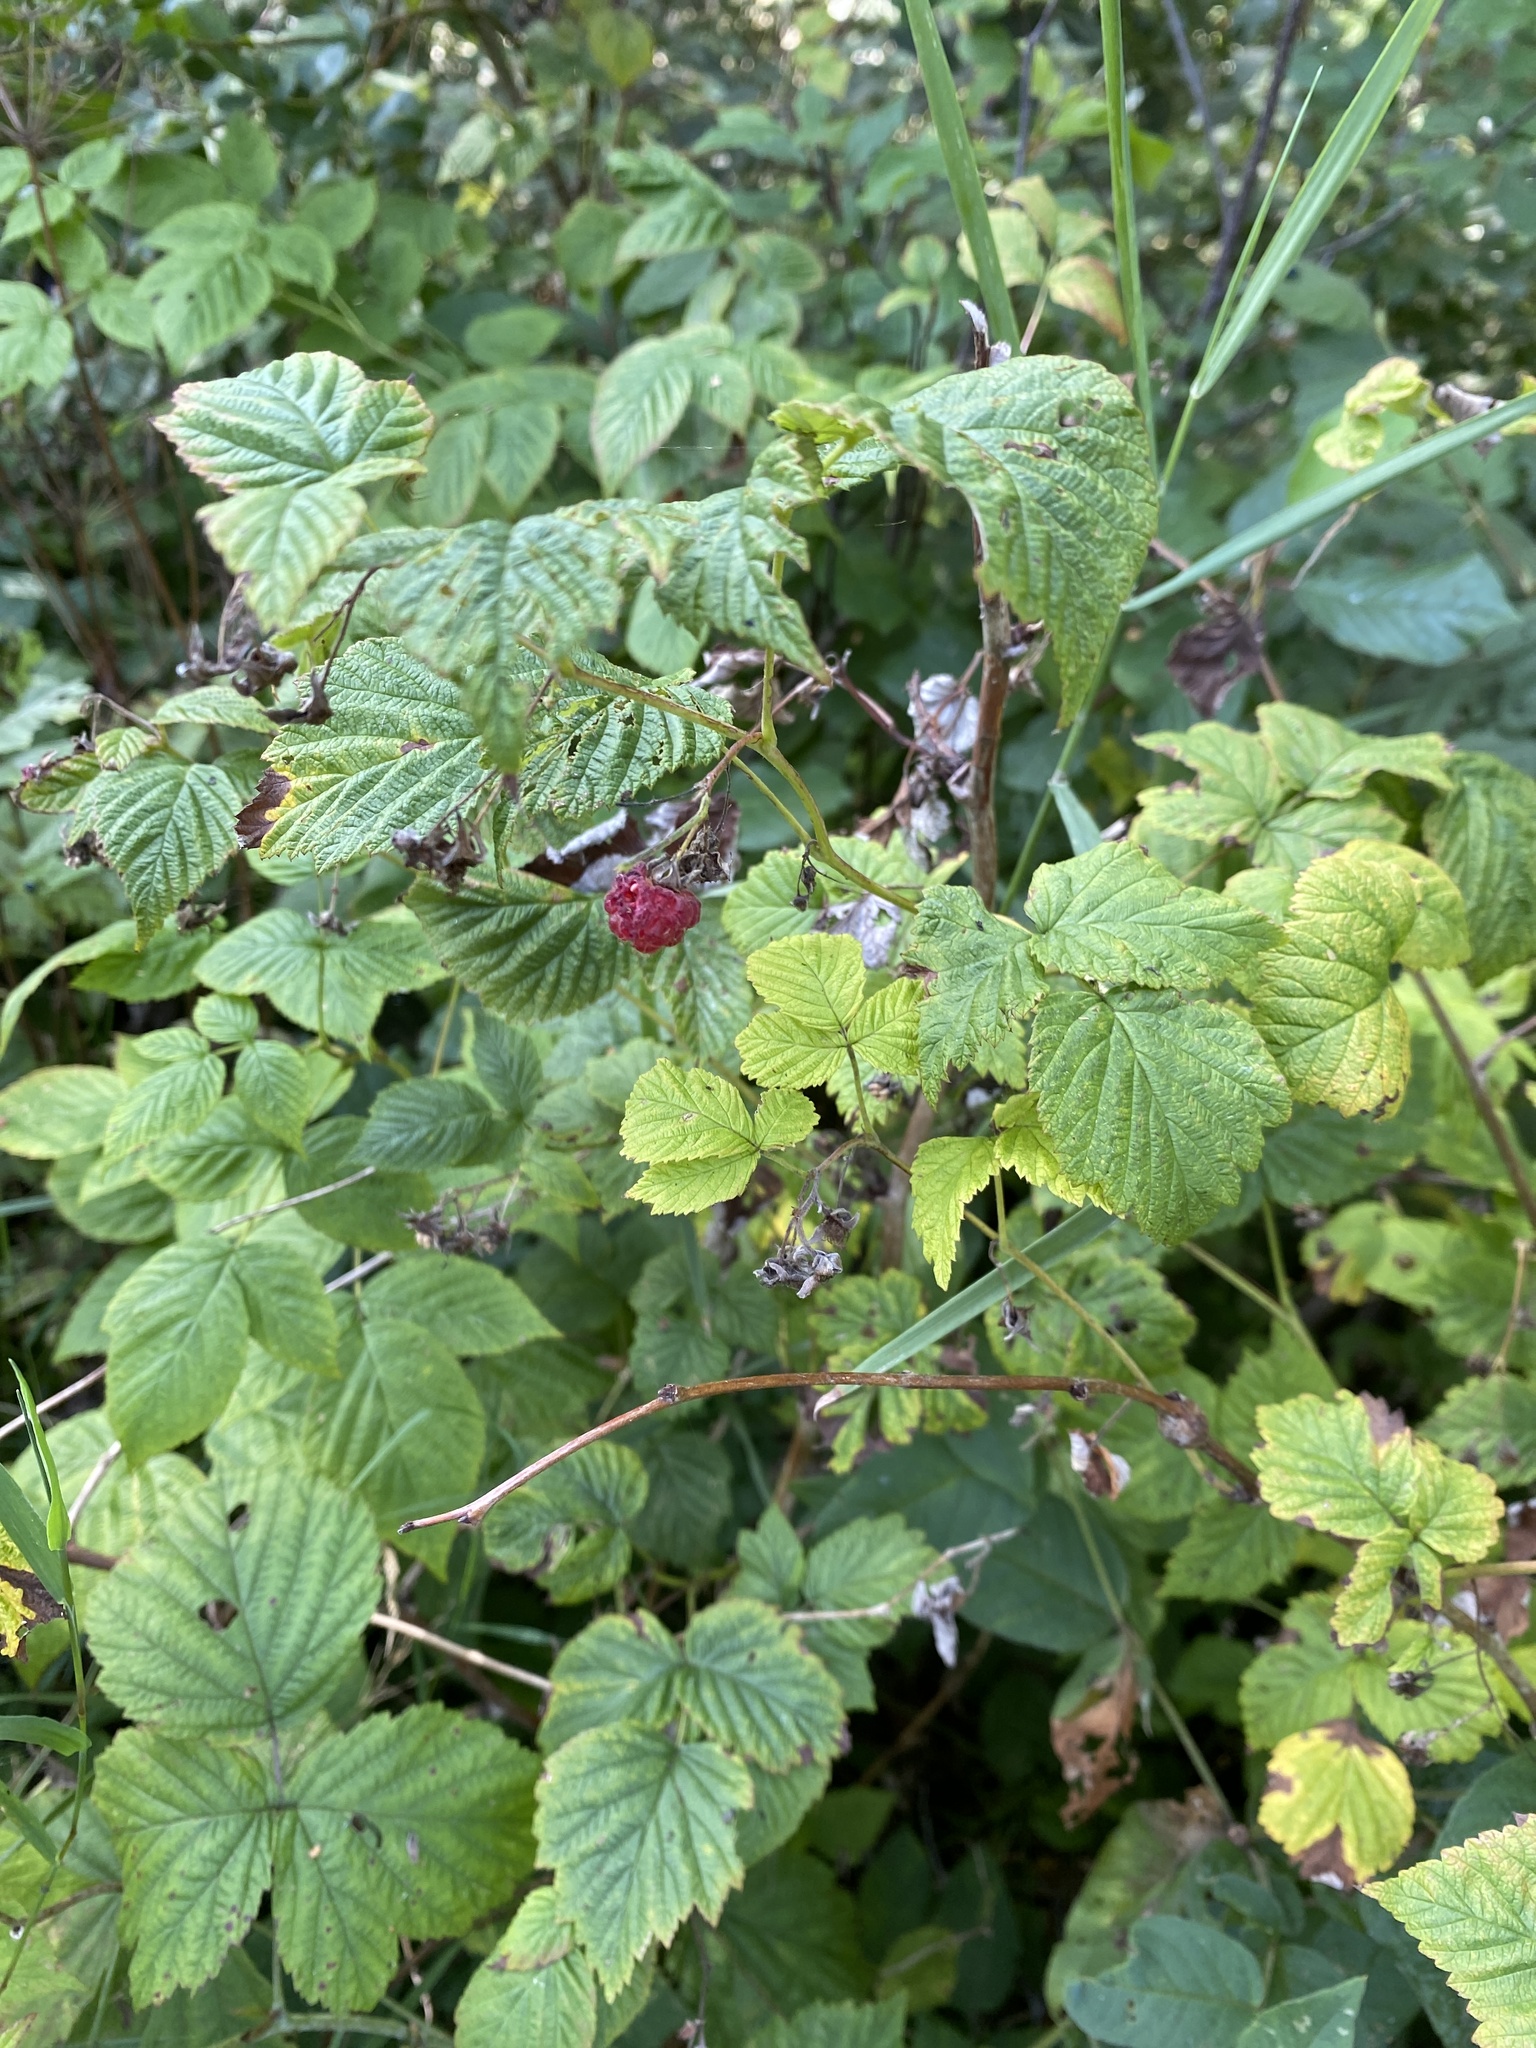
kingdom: Plantae
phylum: Tracheophyta
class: Magnoliopsida
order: Rosales
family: Rosaceae
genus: Rubus
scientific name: Rubus idaeus
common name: Raspberry
